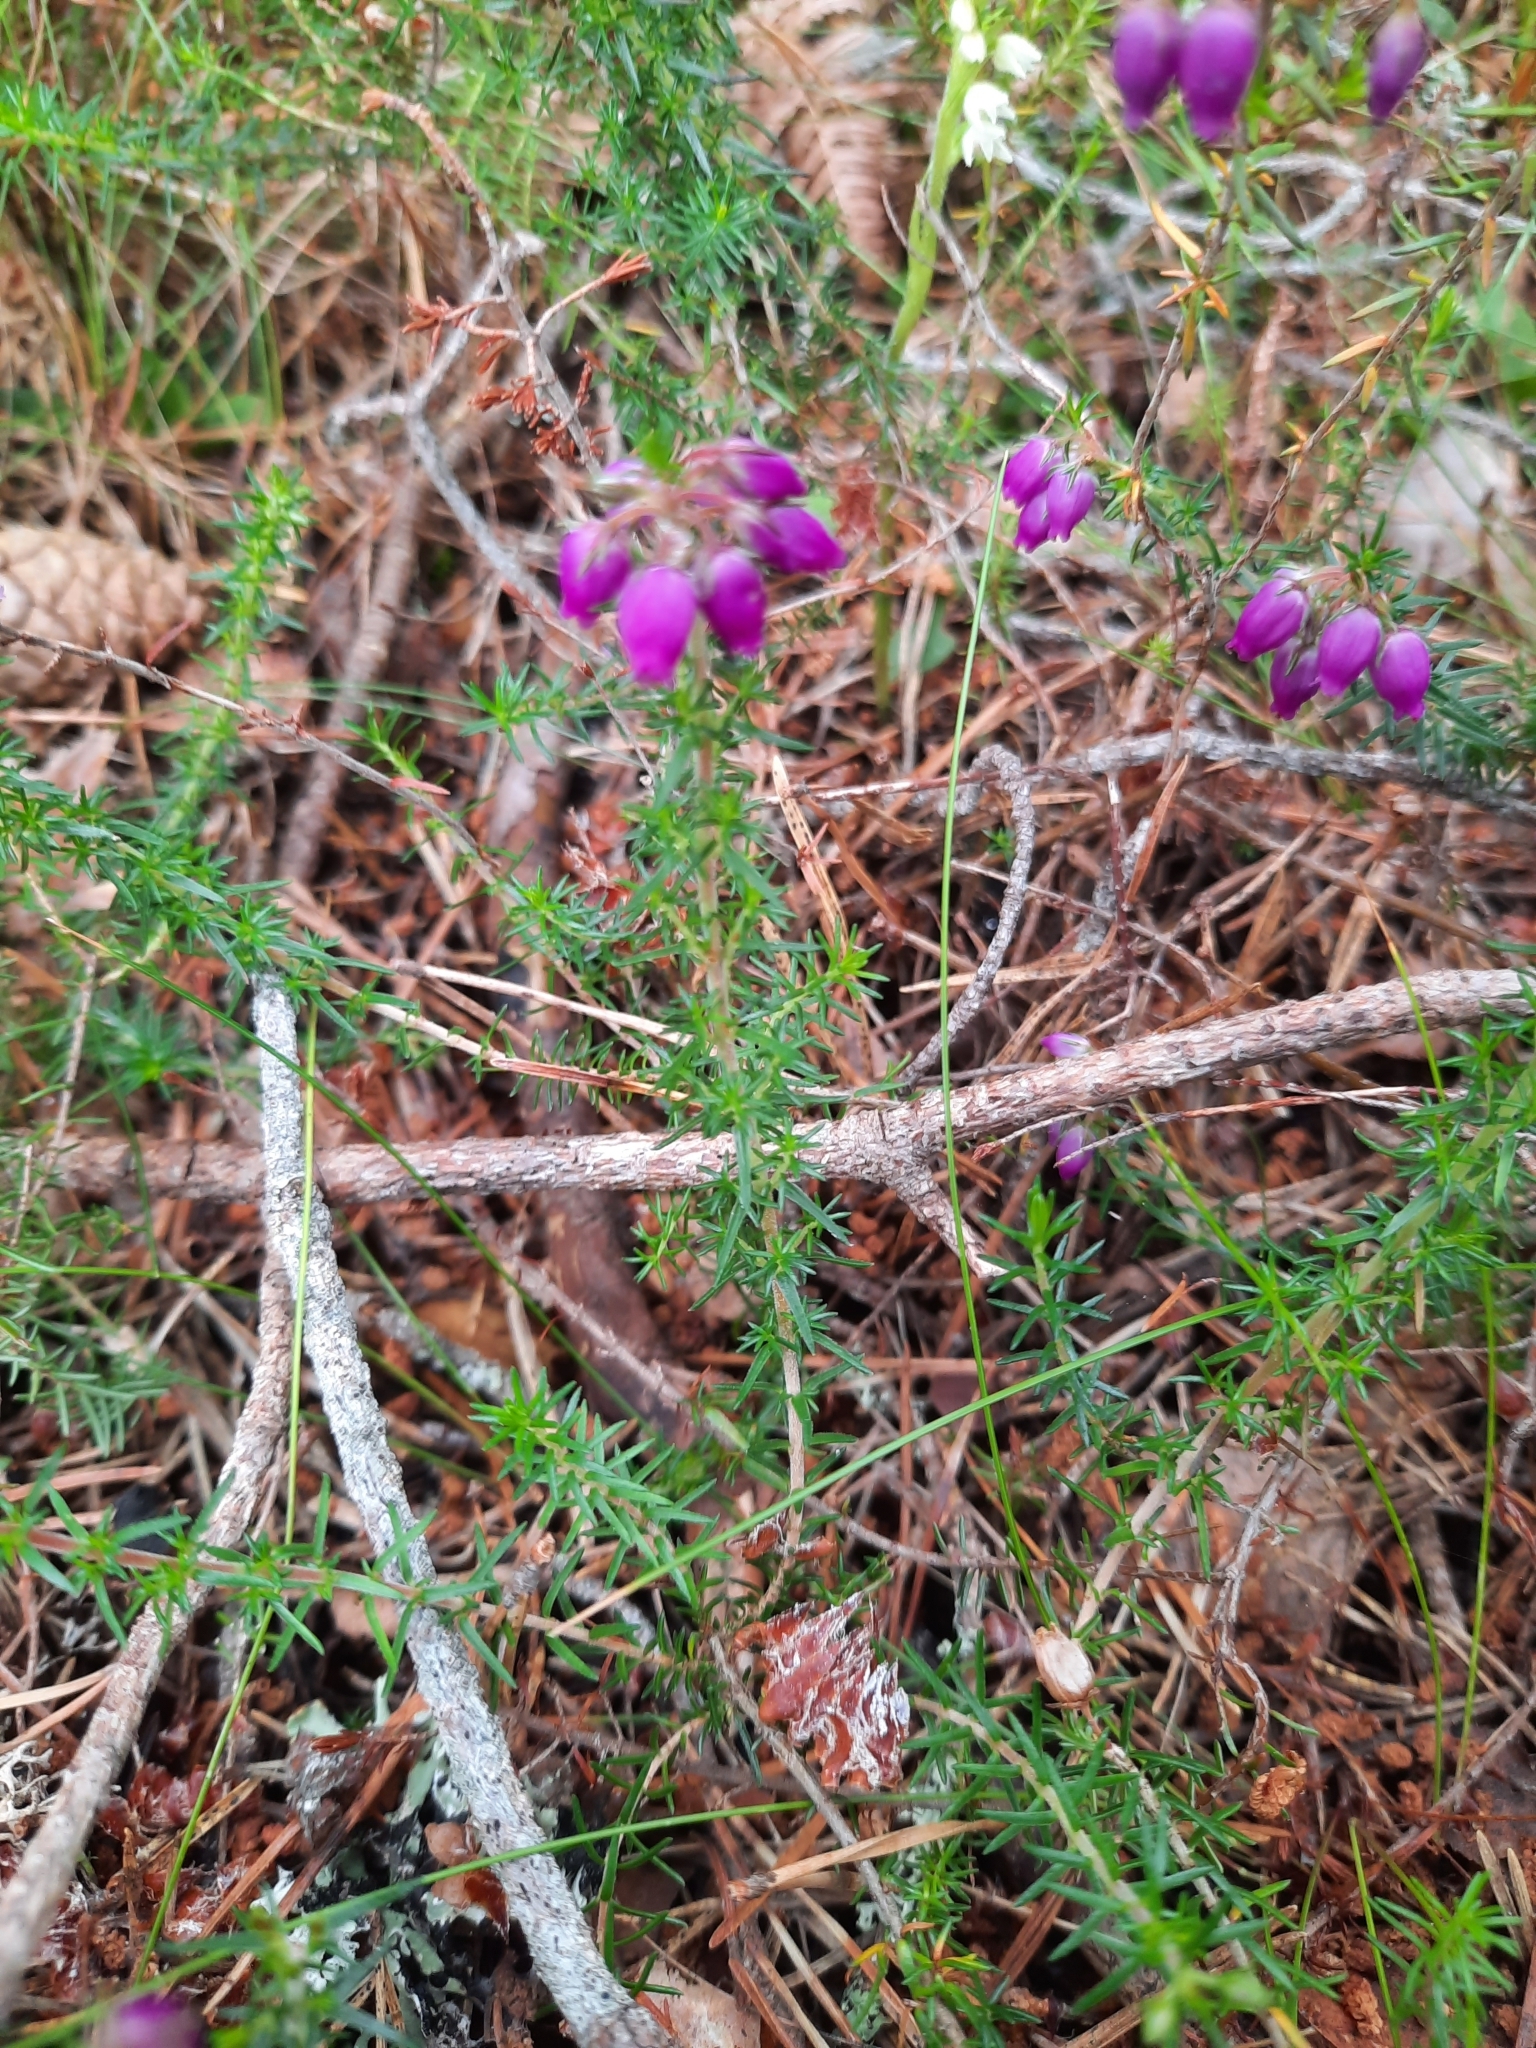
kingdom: Plantae
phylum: Tracheophyta
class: Magnoliopsida
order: Ericales
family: Ericaceae
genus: Erica
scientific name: Erica cinerea
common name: Bell heather
